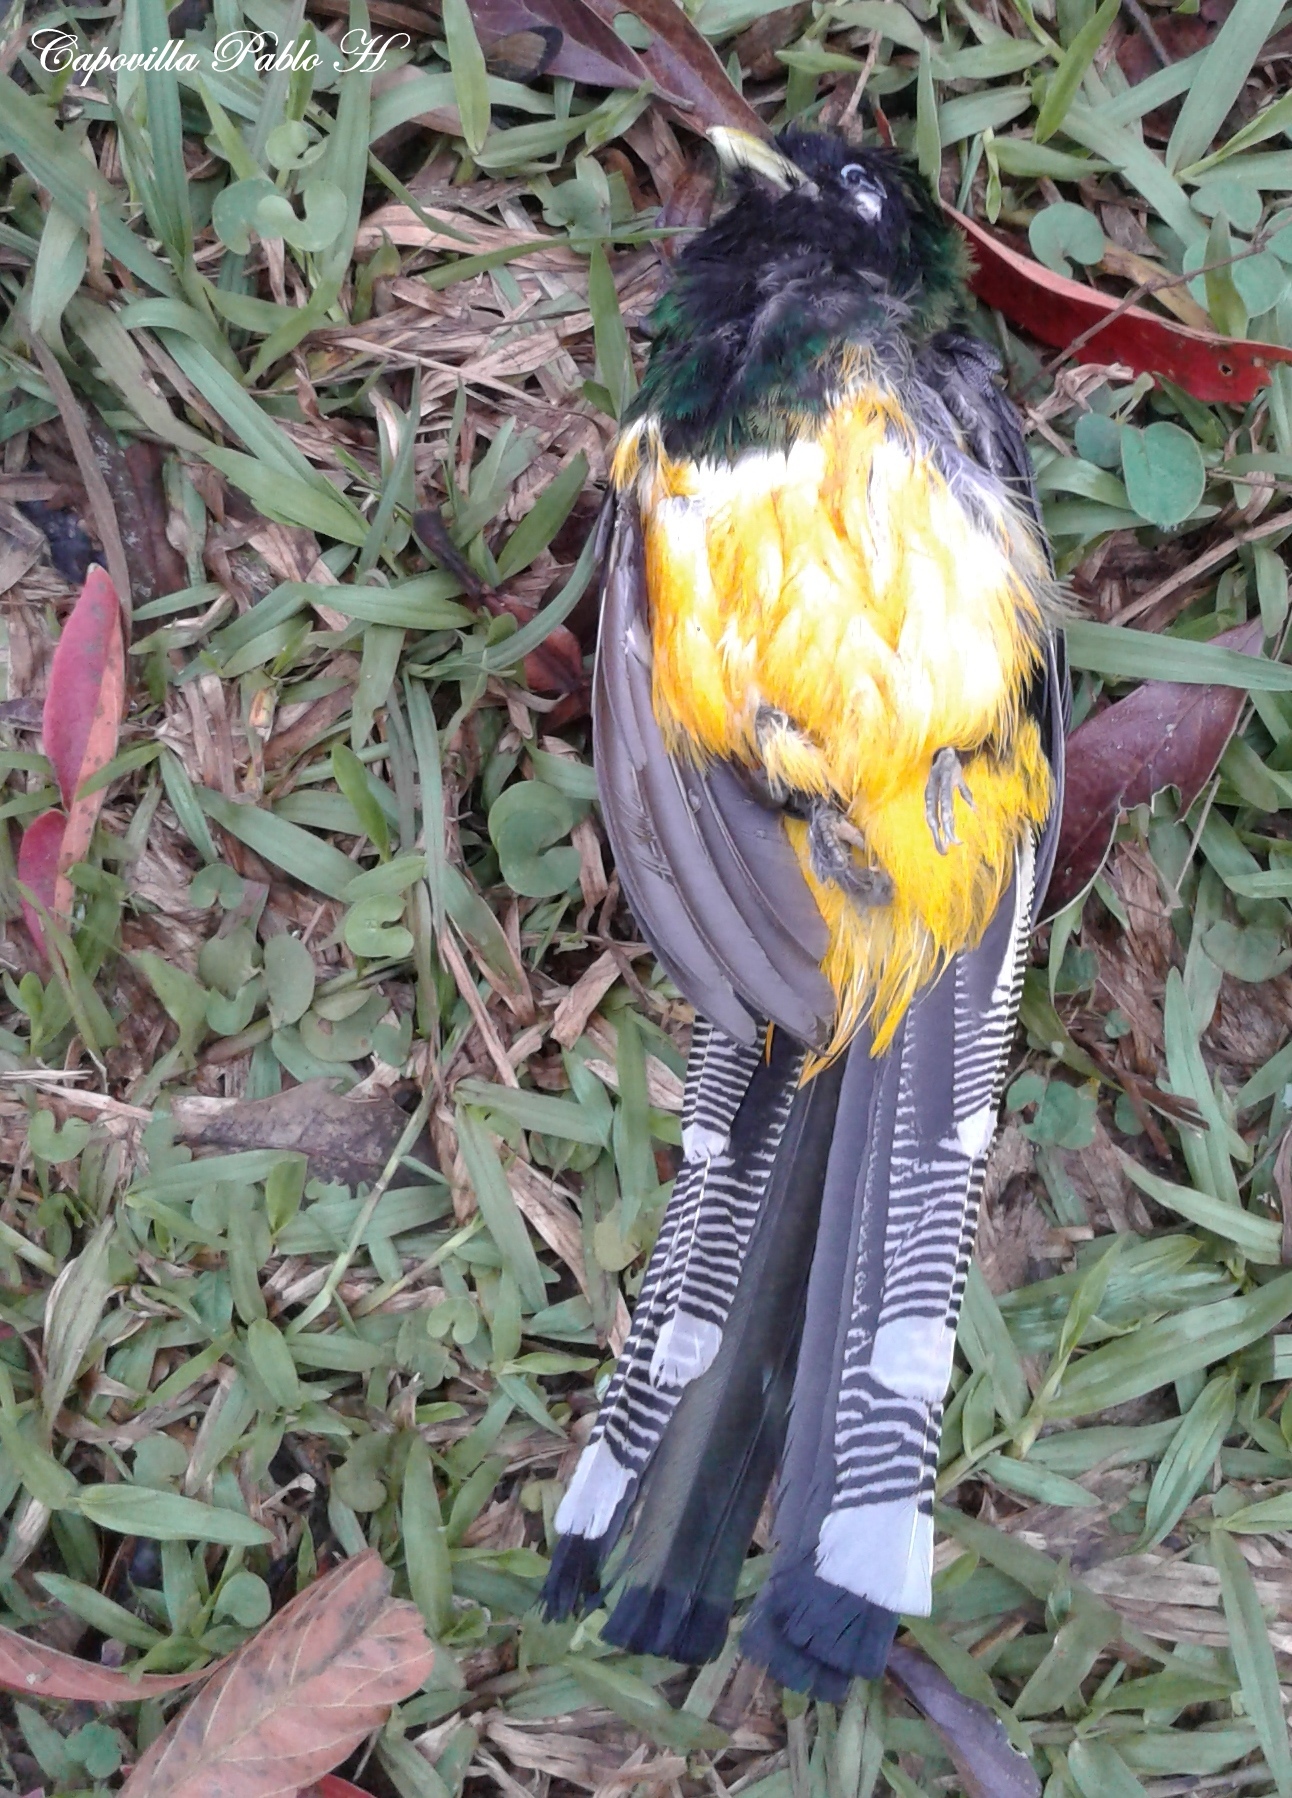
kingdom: Animalia
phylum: Chordata
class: Aves
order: Trogoniformes
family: Trogonidae
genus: Trogon
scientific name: Trogon rufus
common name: Black-throated trogon
